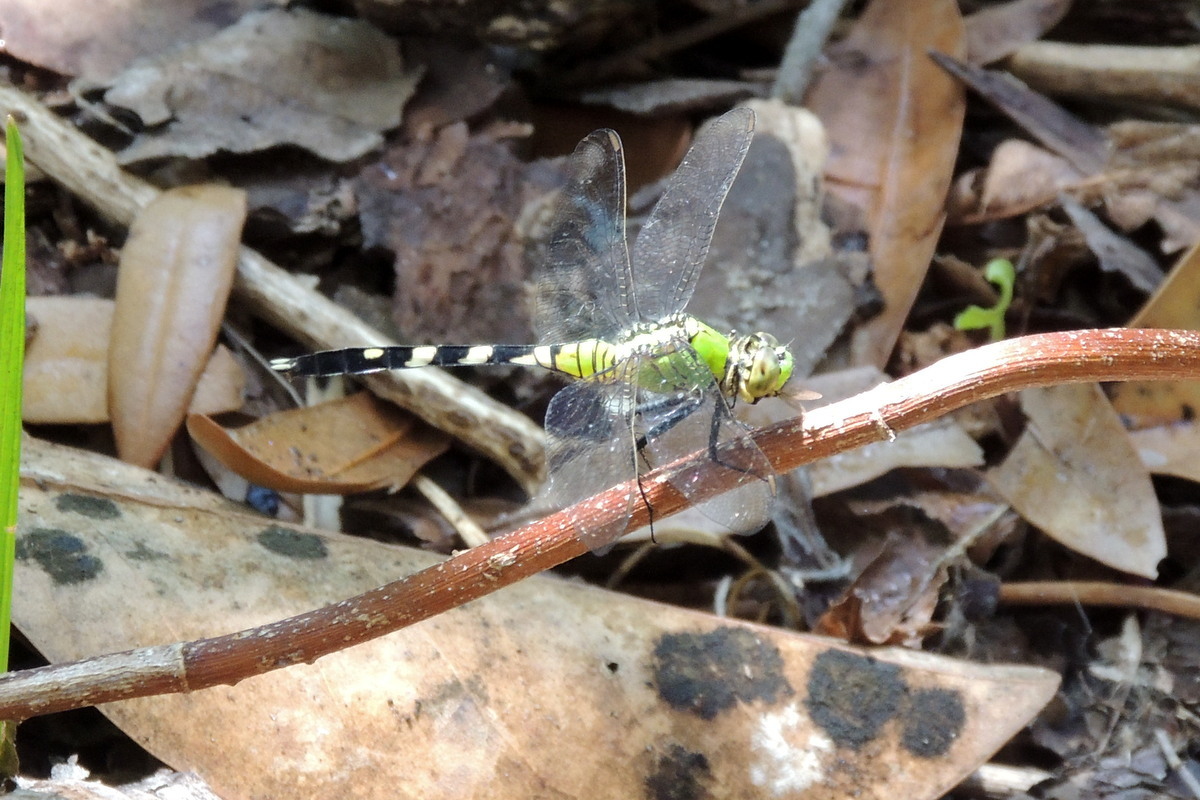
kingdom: Animalia
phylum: Arthropoda
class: Insecta
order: Odonata
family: Libellulidae
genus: Erythemis
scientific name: Erythemis simplicicollis
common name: Eastern pondhawk
